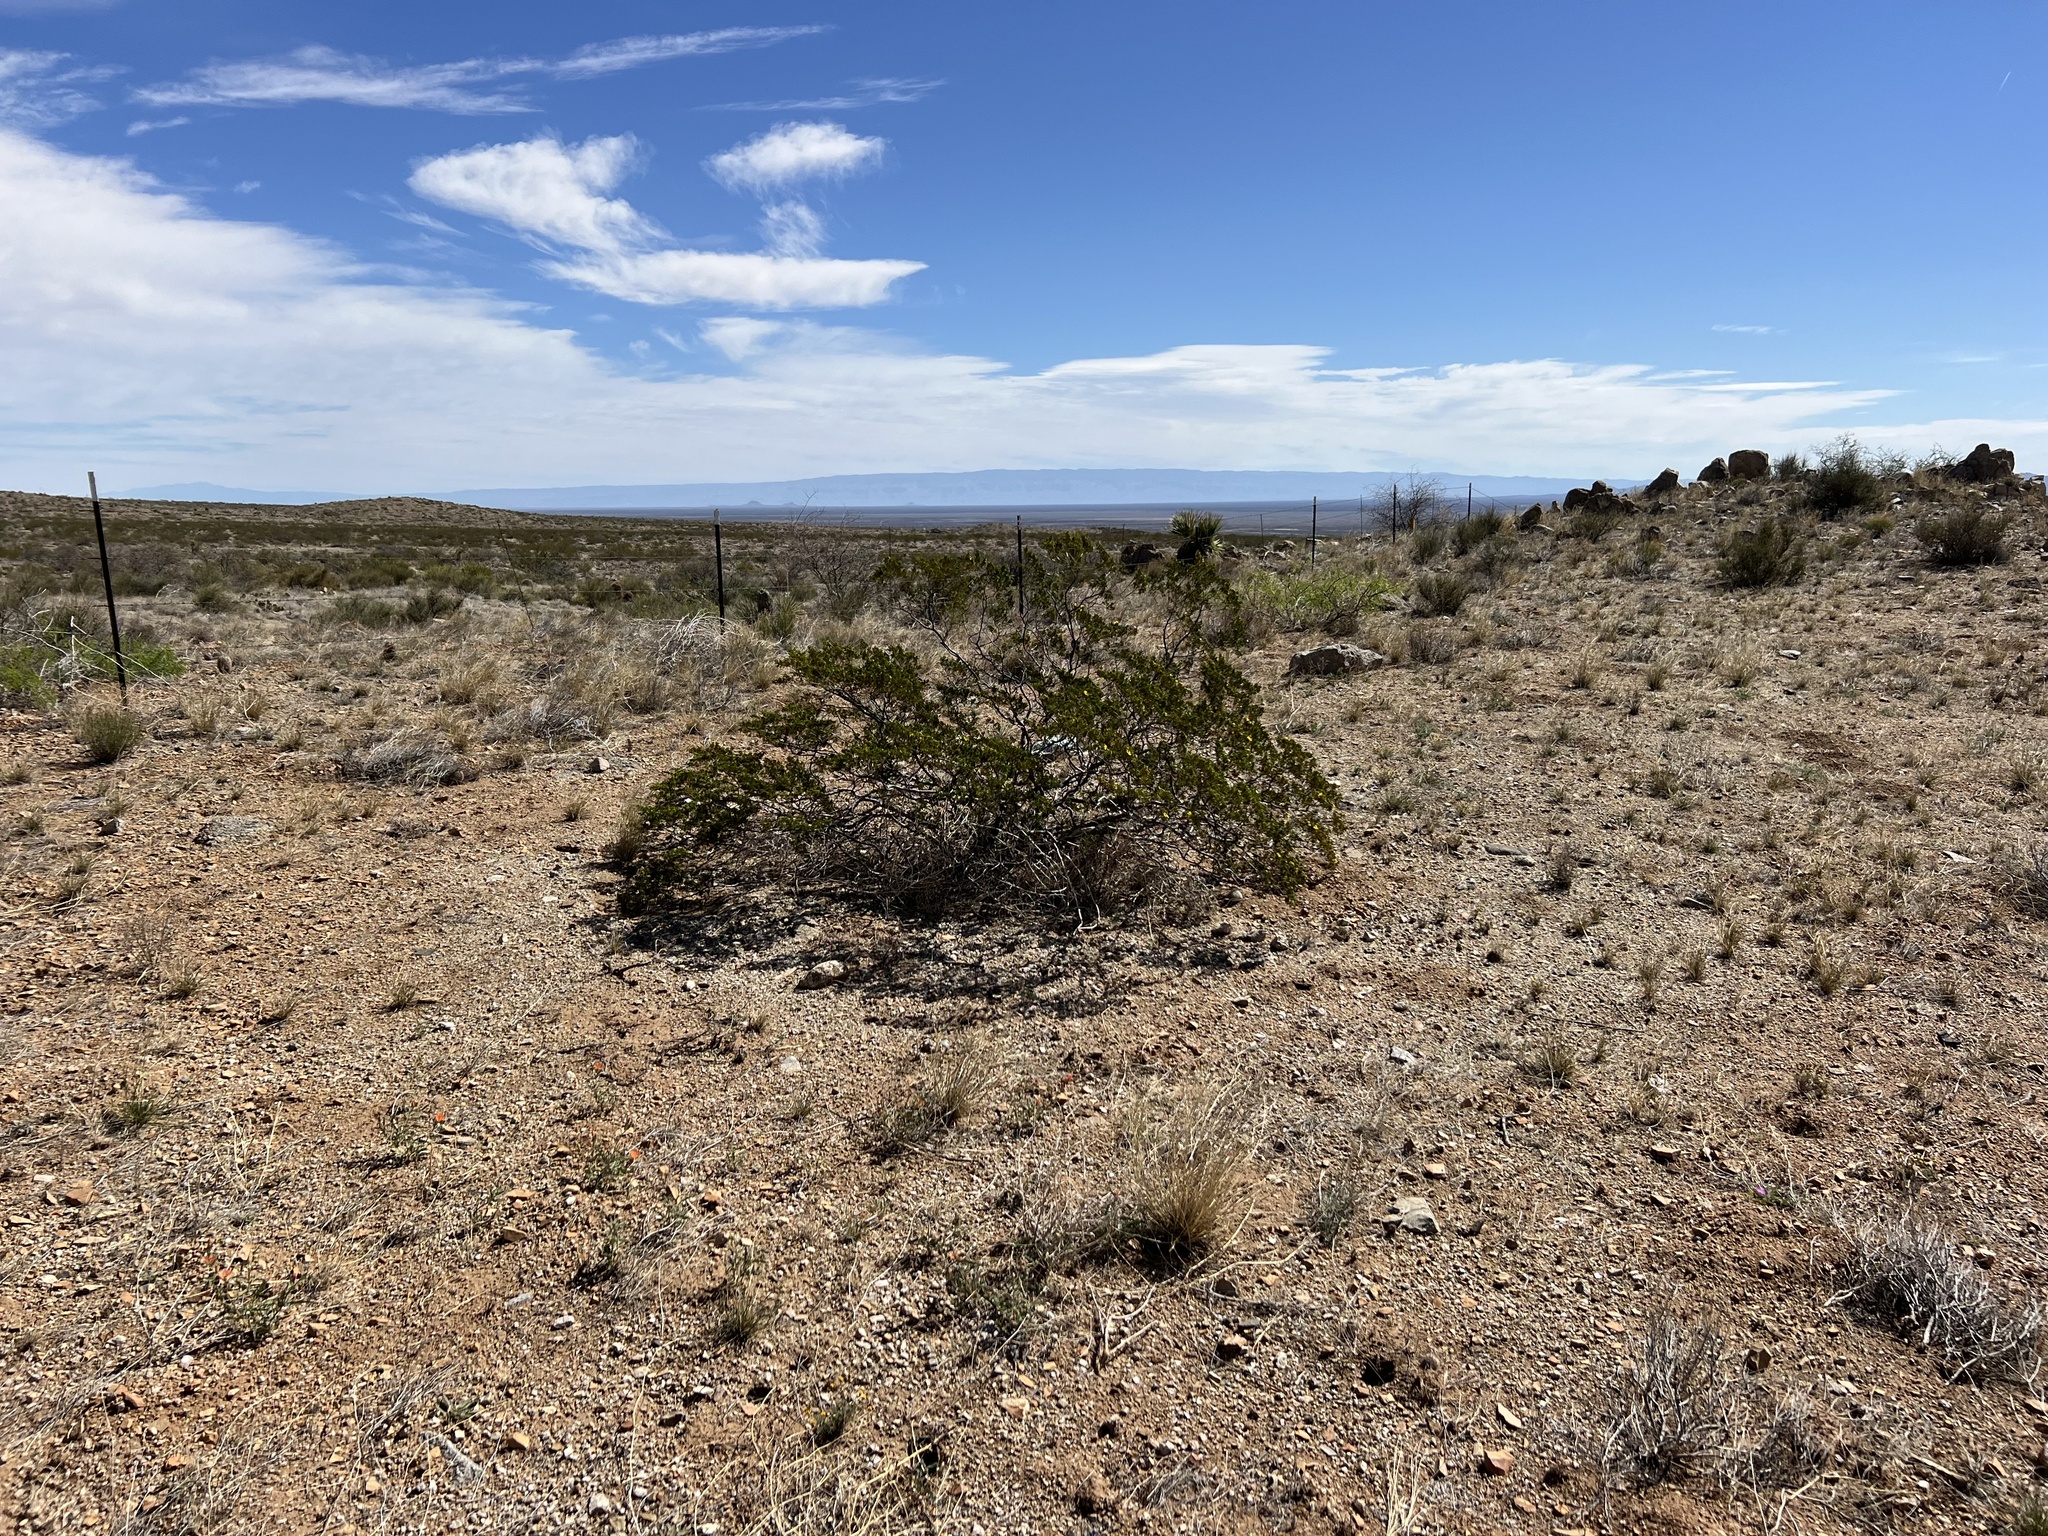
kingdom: Plantae
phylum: Tracheophyta
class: Magnoliopsida
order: Zygophyllales
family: Zygophyllaceae
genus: Larrea
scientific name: Larrea tridentata
